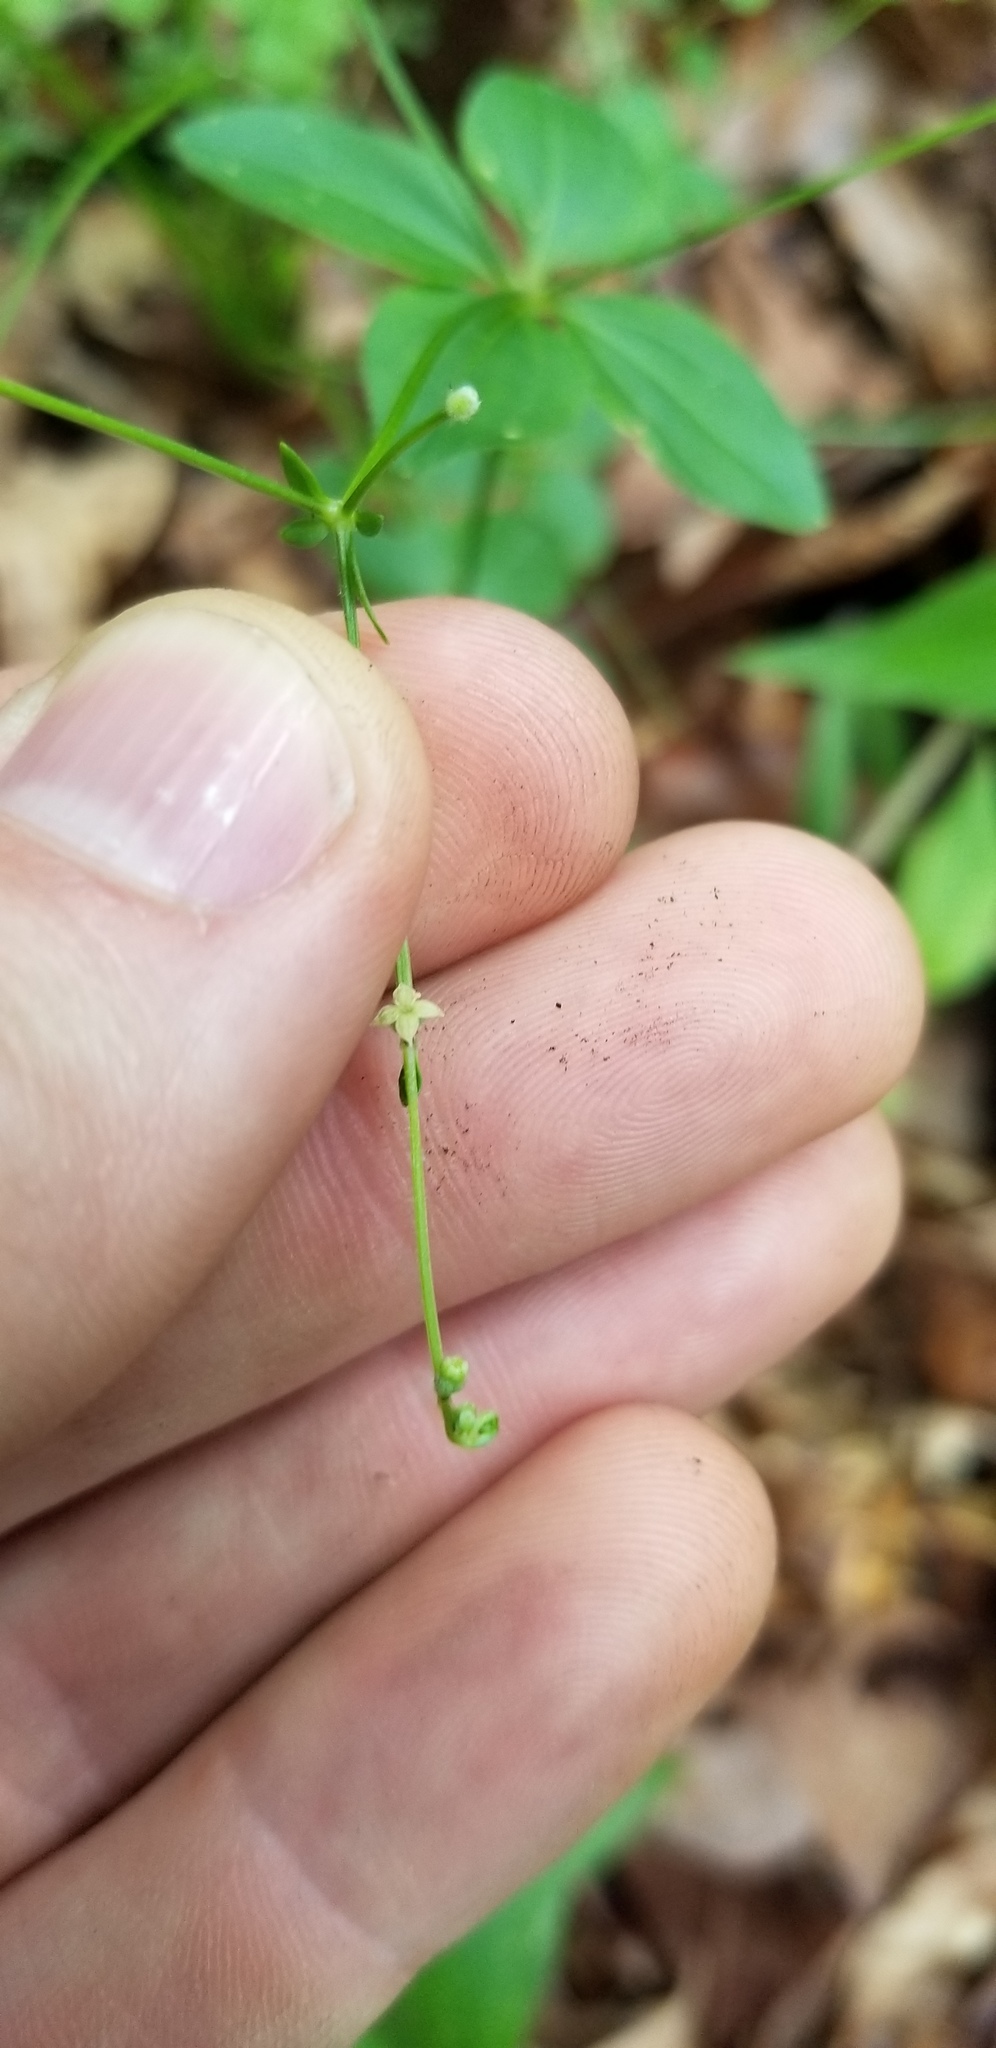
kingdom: Plantae
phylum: Tracheophyta
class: Magnoliopsida
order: Gentianales
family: Rubiaceae
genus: Galium
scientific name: Galium circaezans
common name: Forest bedstraw
